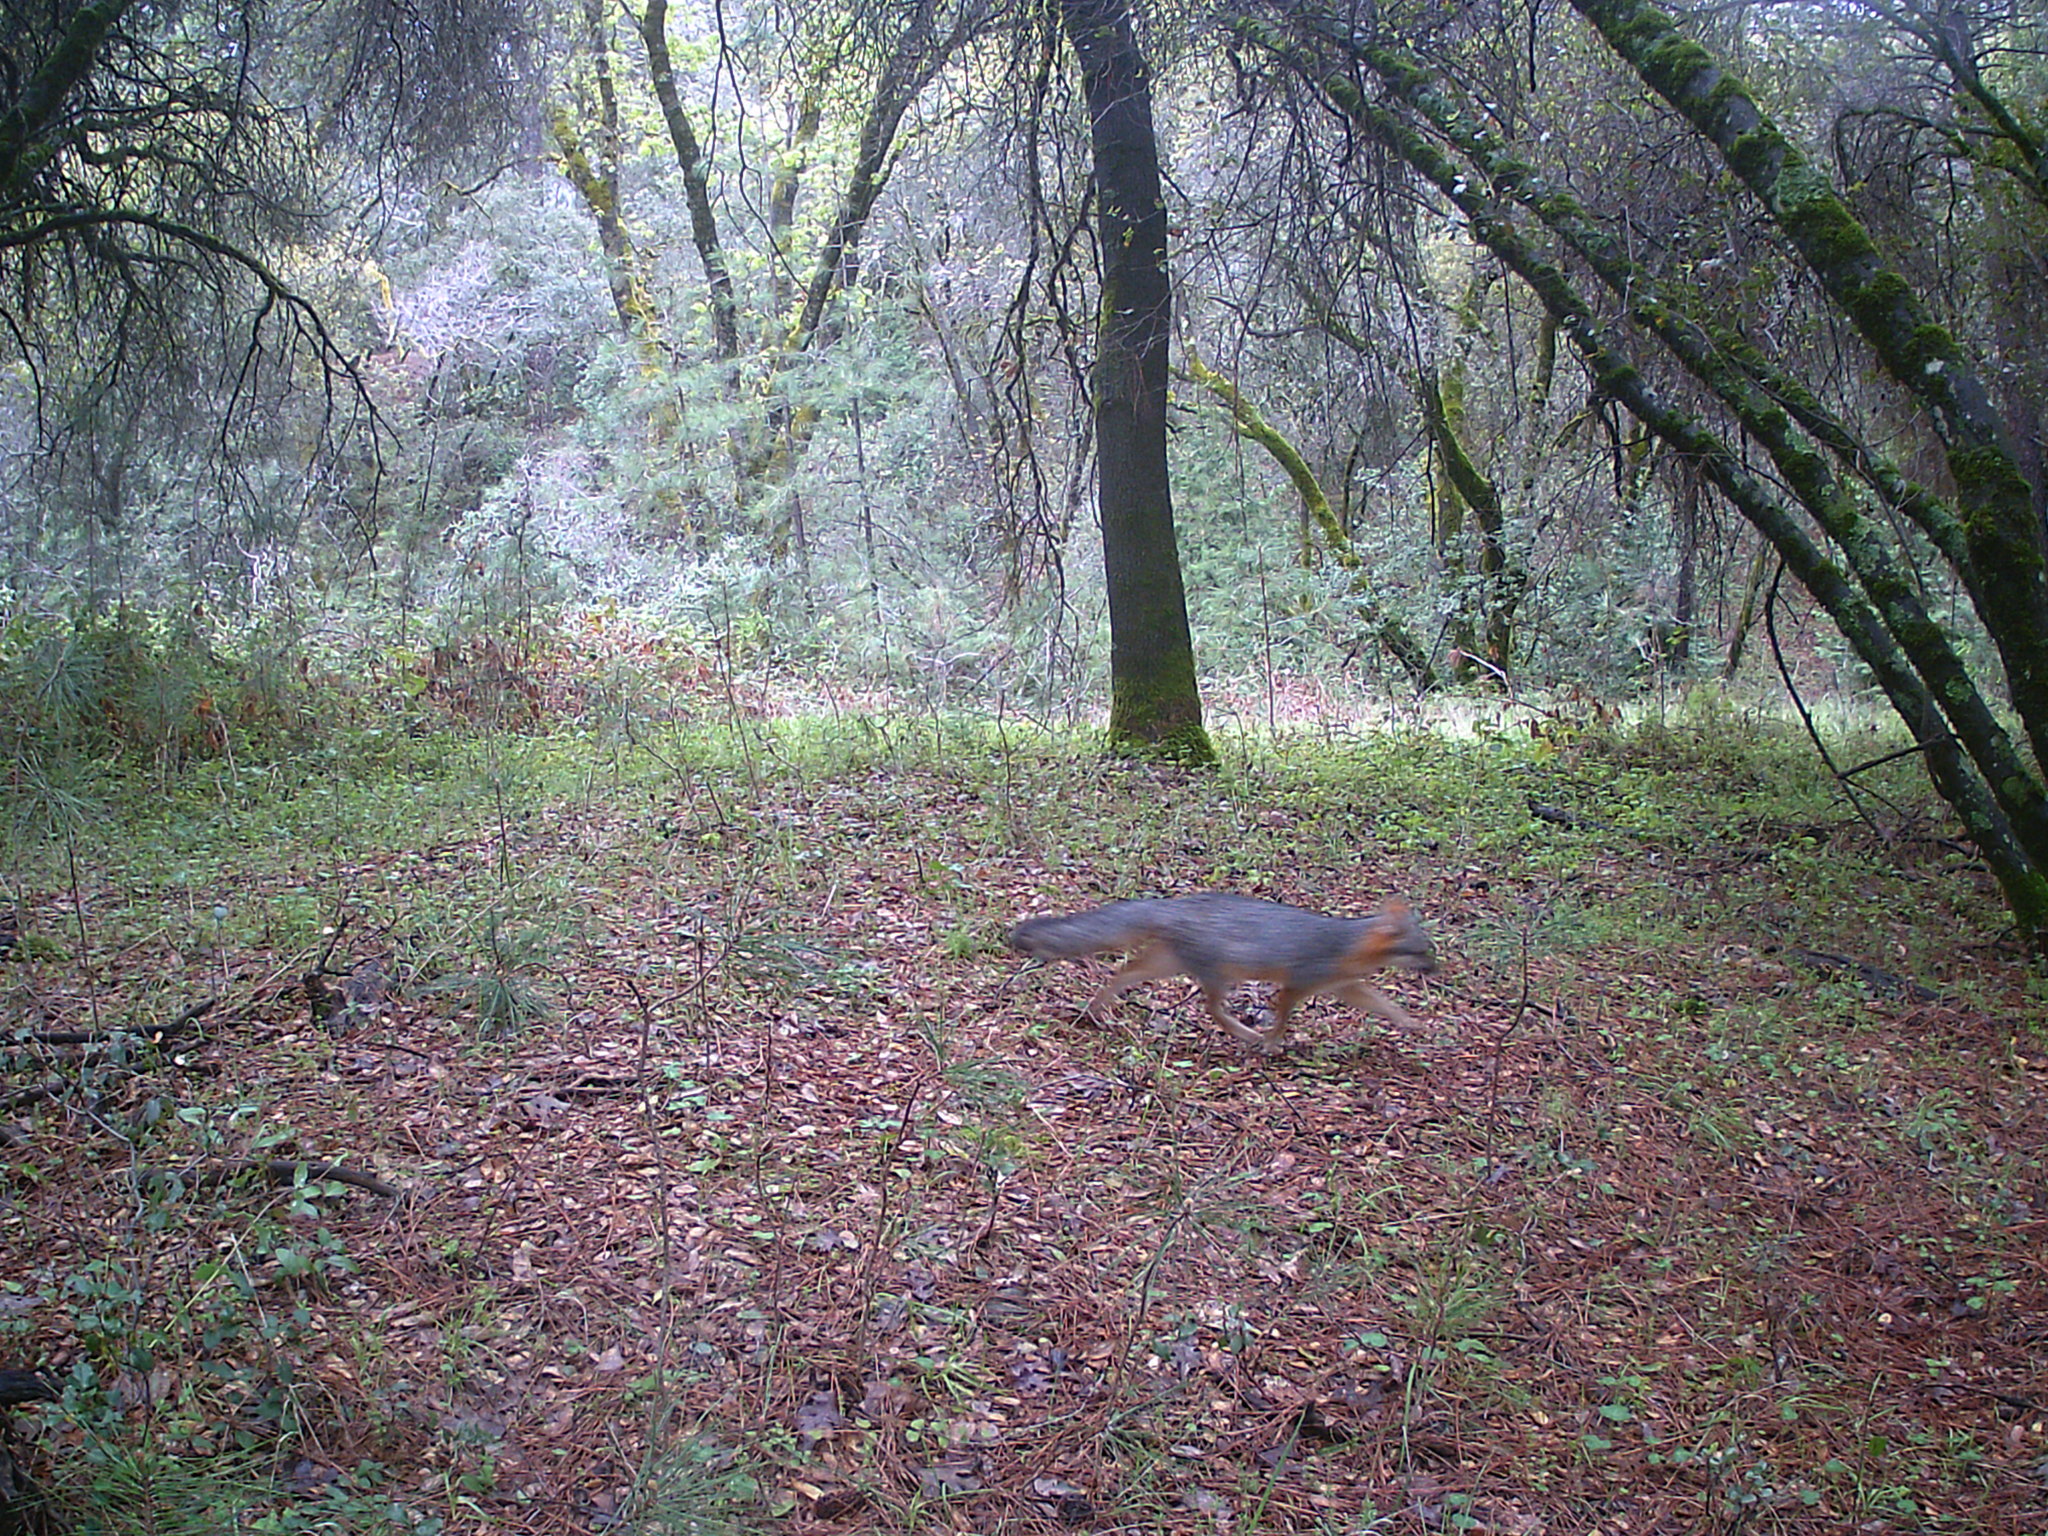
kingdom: Animalia
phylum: Chordata
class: Mammalia
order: Carnivora
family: Canidae
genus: Urocyon
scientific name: Urocyon cinereoargenteus
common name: Gray fox
